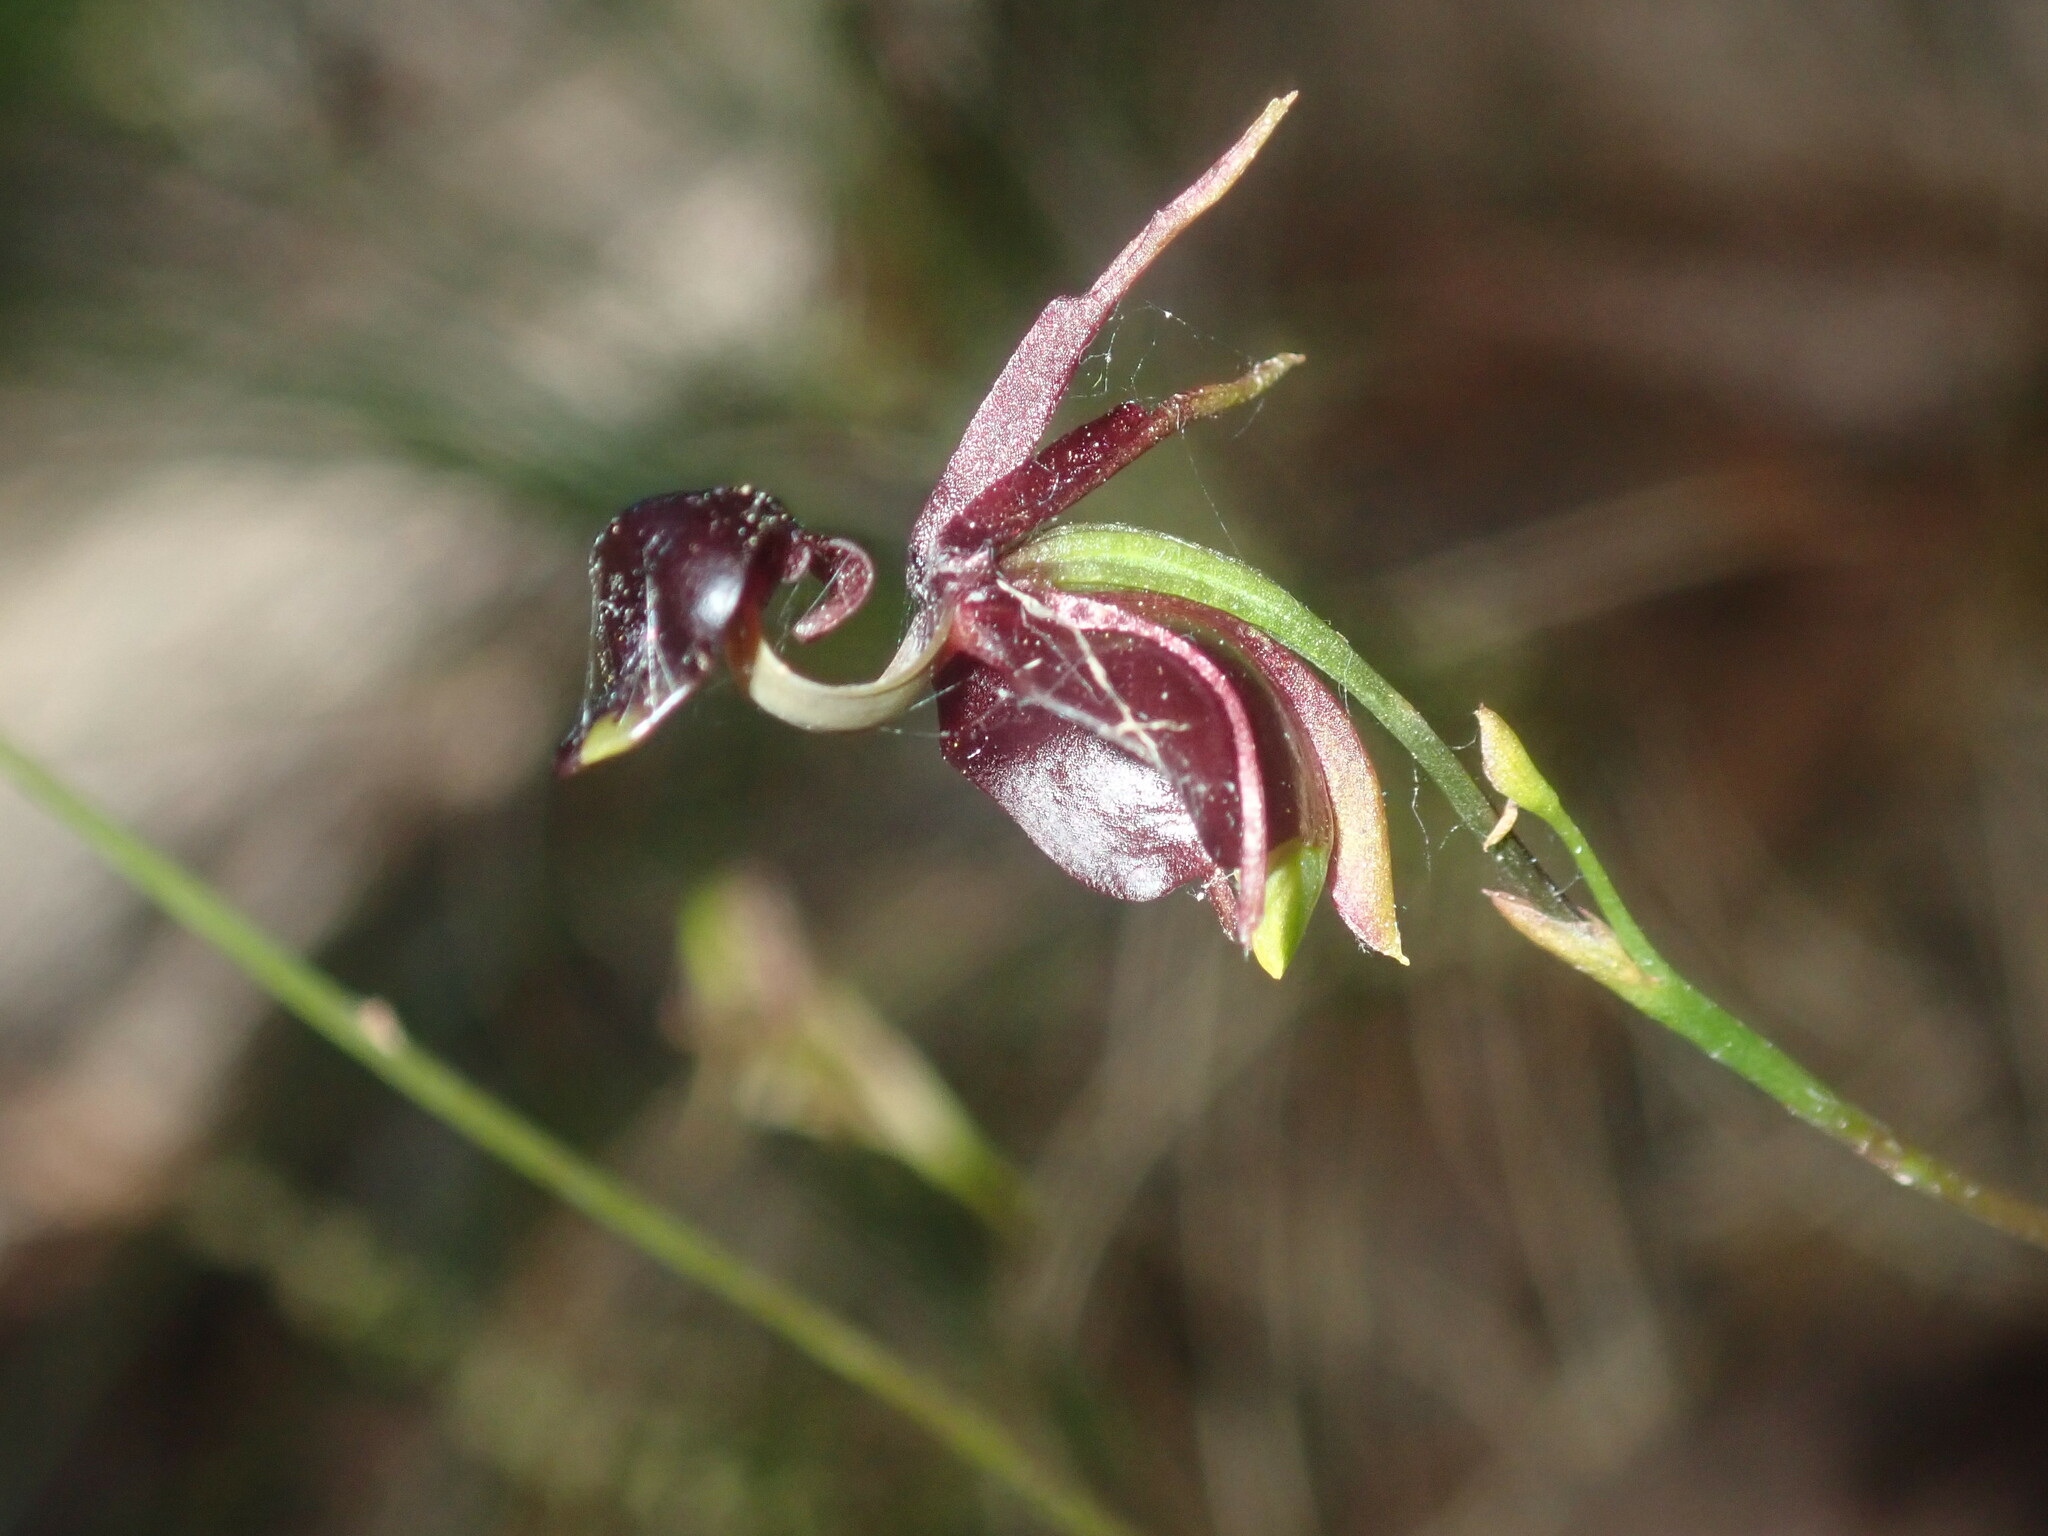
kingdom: Plantae
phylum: Tracheophyta
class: Liliopsida
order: Asparagales
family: Orchidaceae
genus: Caleana
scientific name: Caleana major
